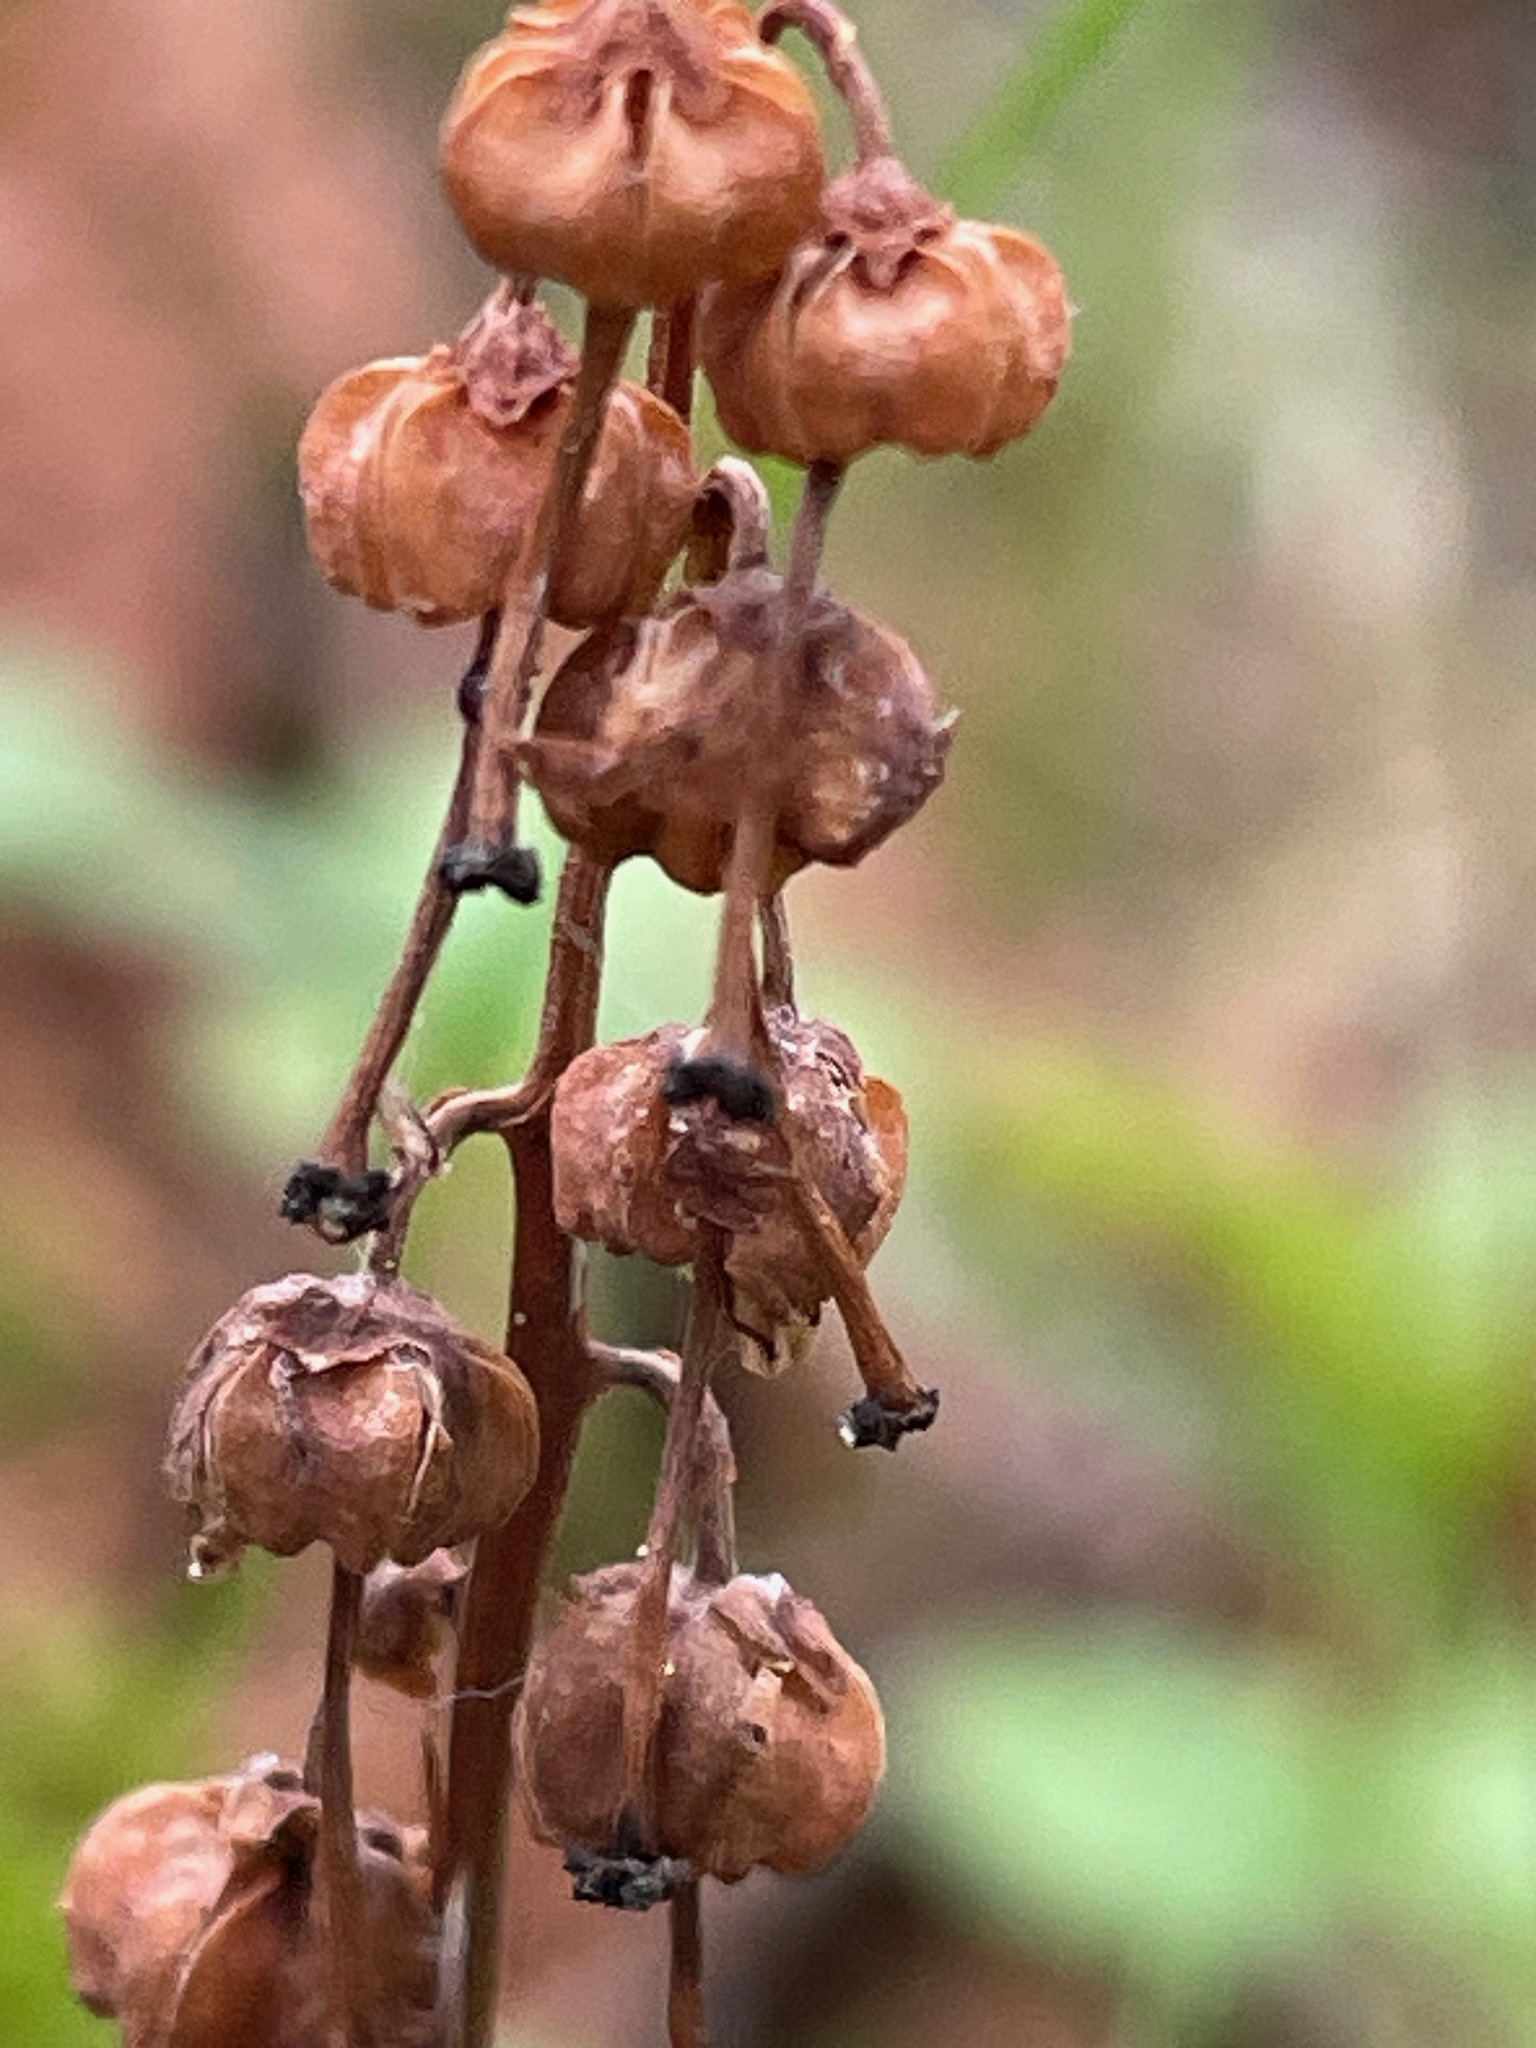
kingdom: Plantae
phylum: Tracheophyta
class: Magnoliopsida
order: Ericales
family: Ericaceae
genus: Orthilia
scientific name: Orthilia secunda
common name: One-sided orthilia
